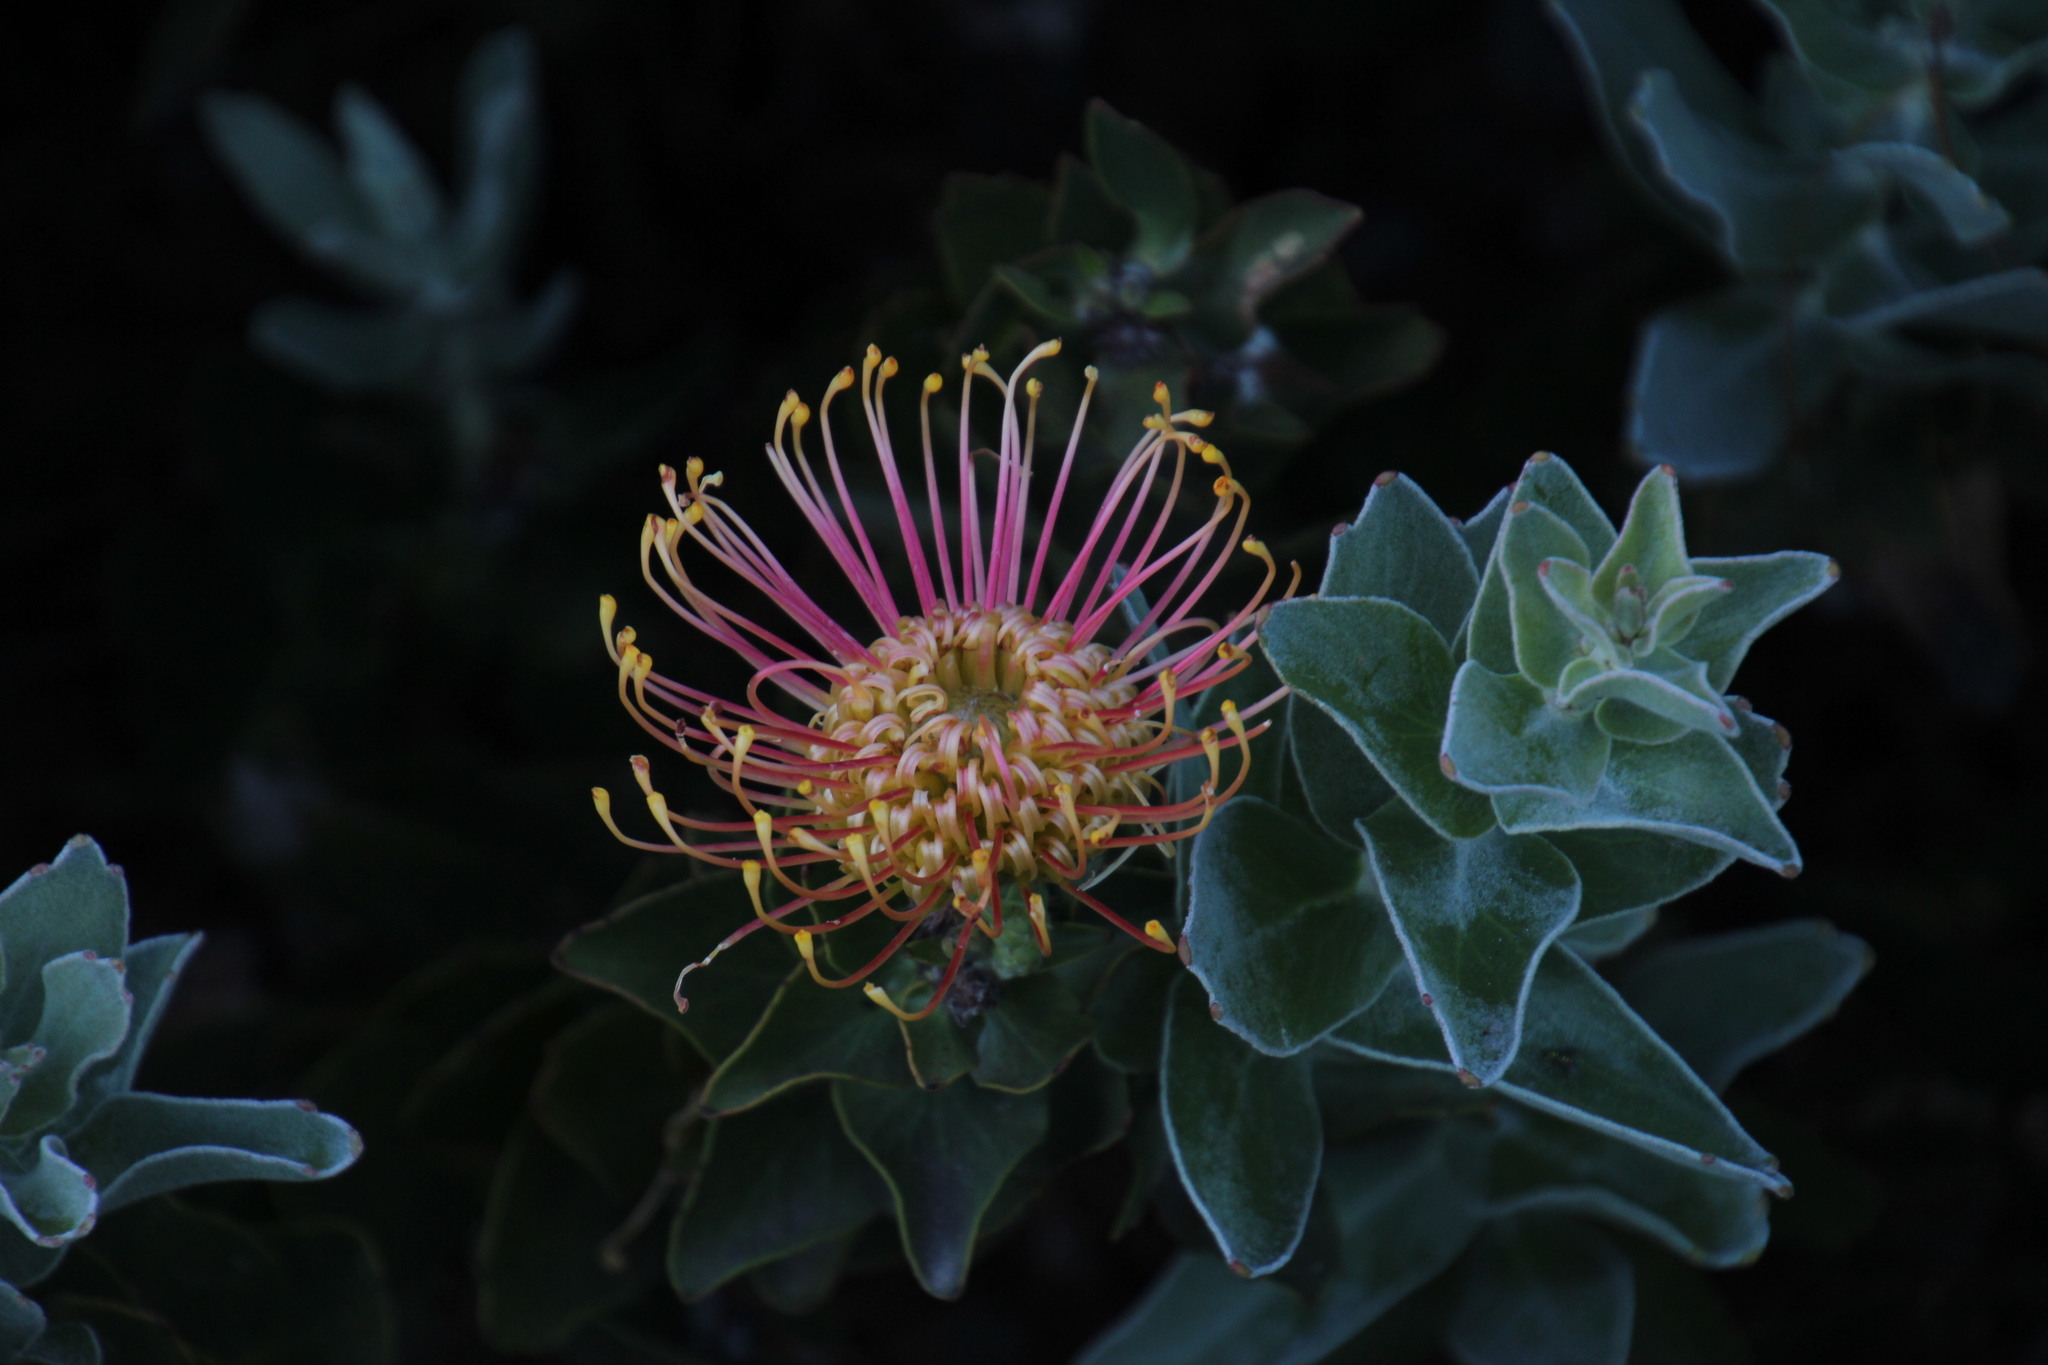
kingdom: Plantae
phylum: Tracheophyta
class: Magnoliopsida
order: Proteales
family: Proteaceae
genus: Leucospermum
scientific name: Leucospermum
